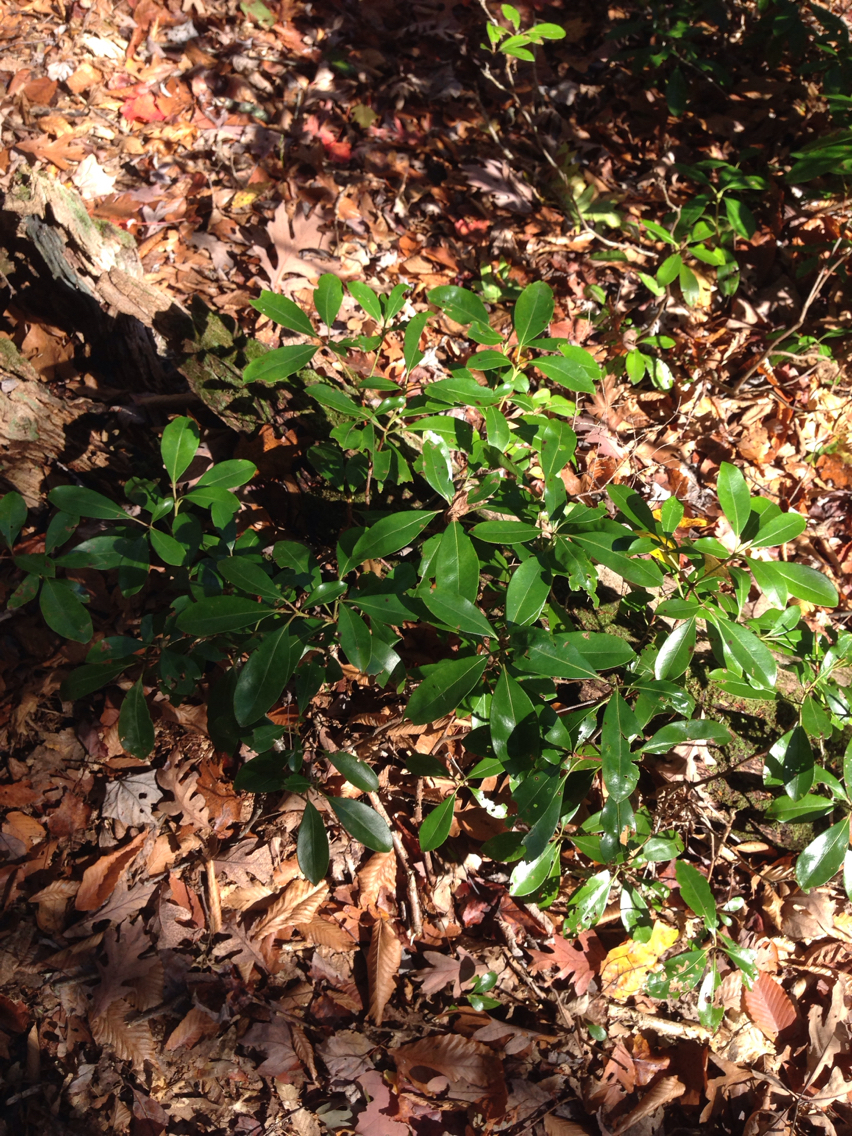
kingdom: Plantae
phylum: Tracheophyta
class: Magnoliopsida
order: Ericales
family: Ericaceae
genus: Kalmia
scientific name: Kalmia latifolia
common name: Mountain-laurel
